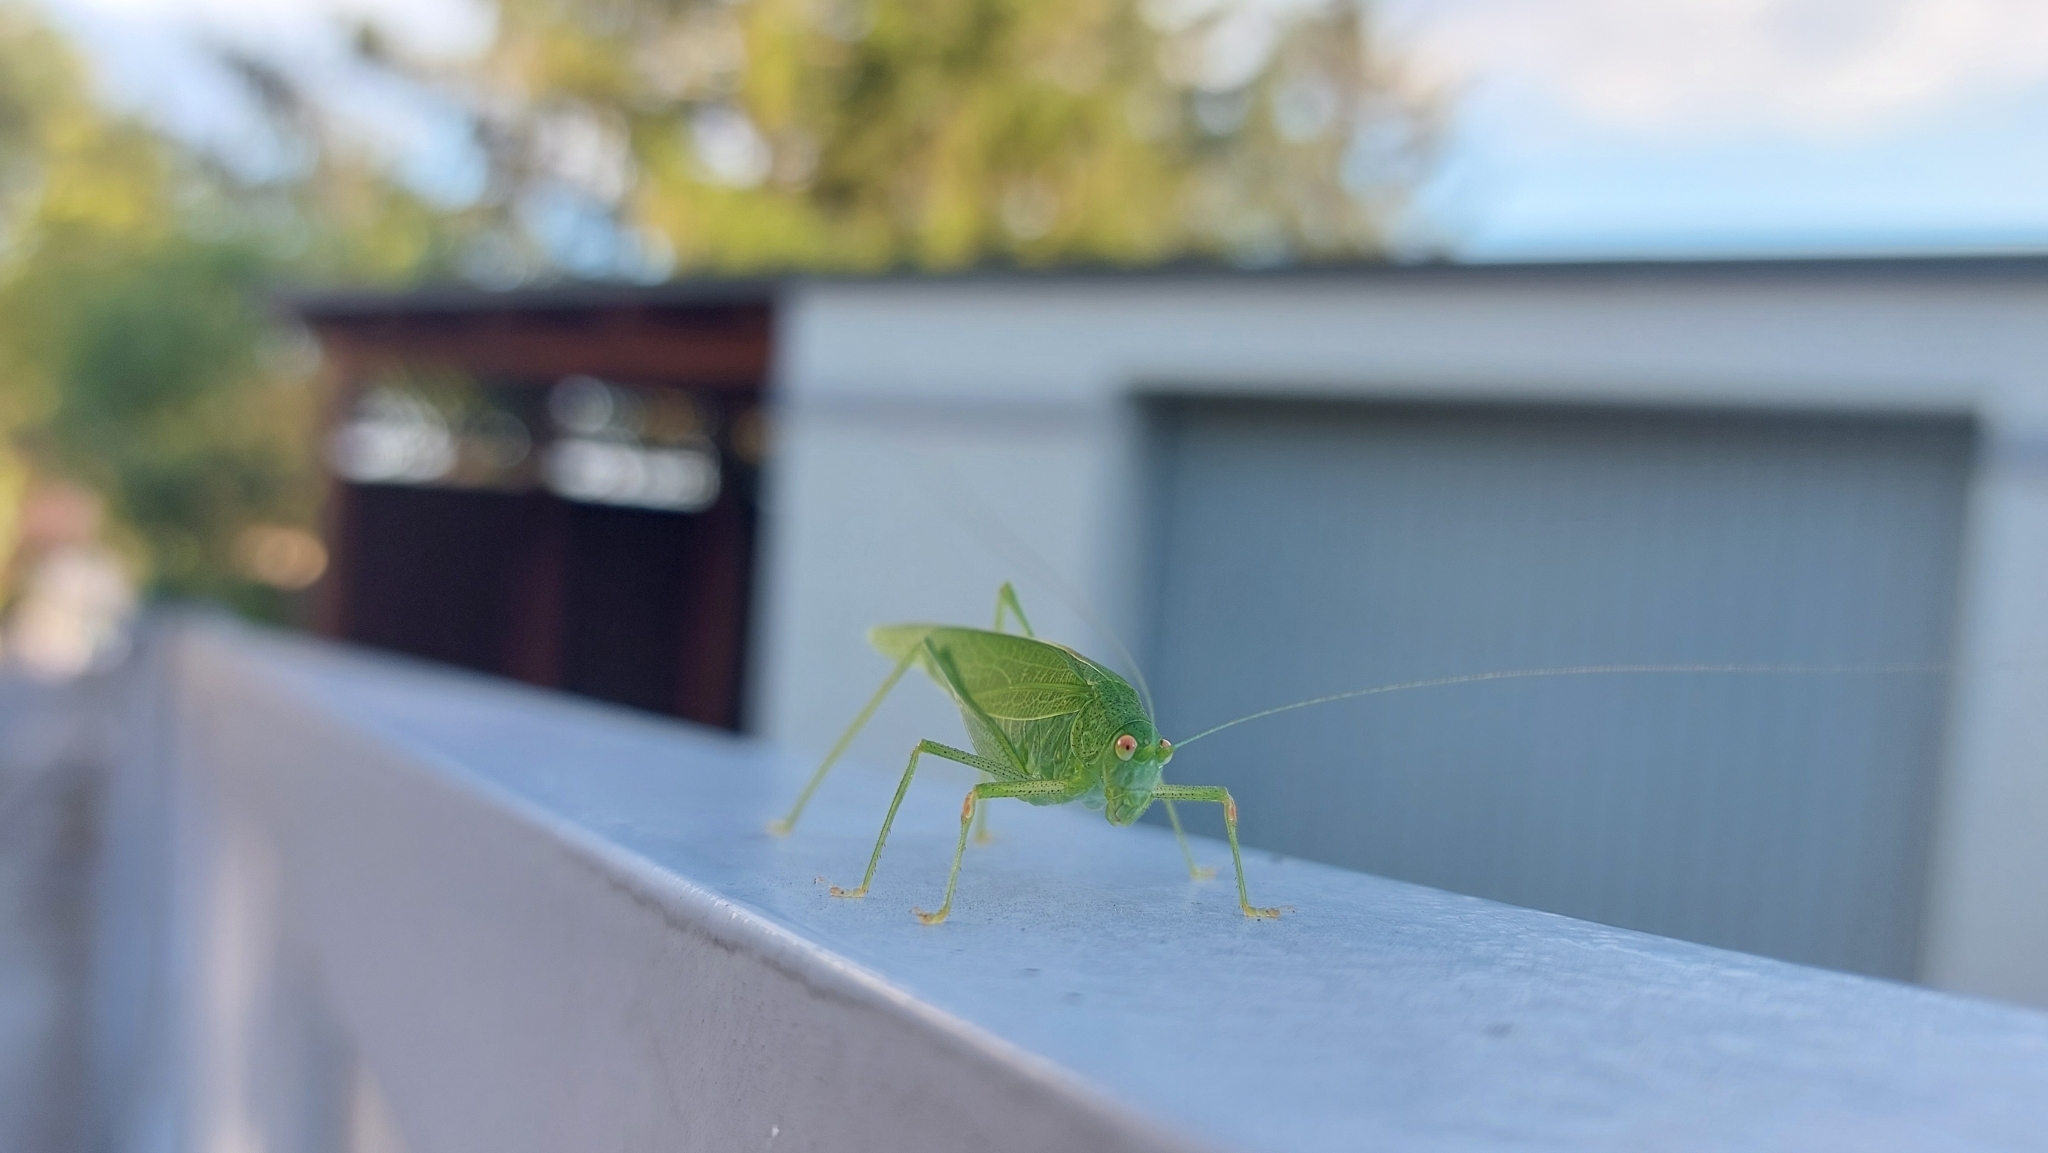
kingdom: Animalia
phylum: Arthropoda
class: Insecta
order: Orthoptera
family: Tettigoniidae
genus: Phaneroptera
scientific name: Phaneroptera nana
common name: Southern sickle bush-cricket
